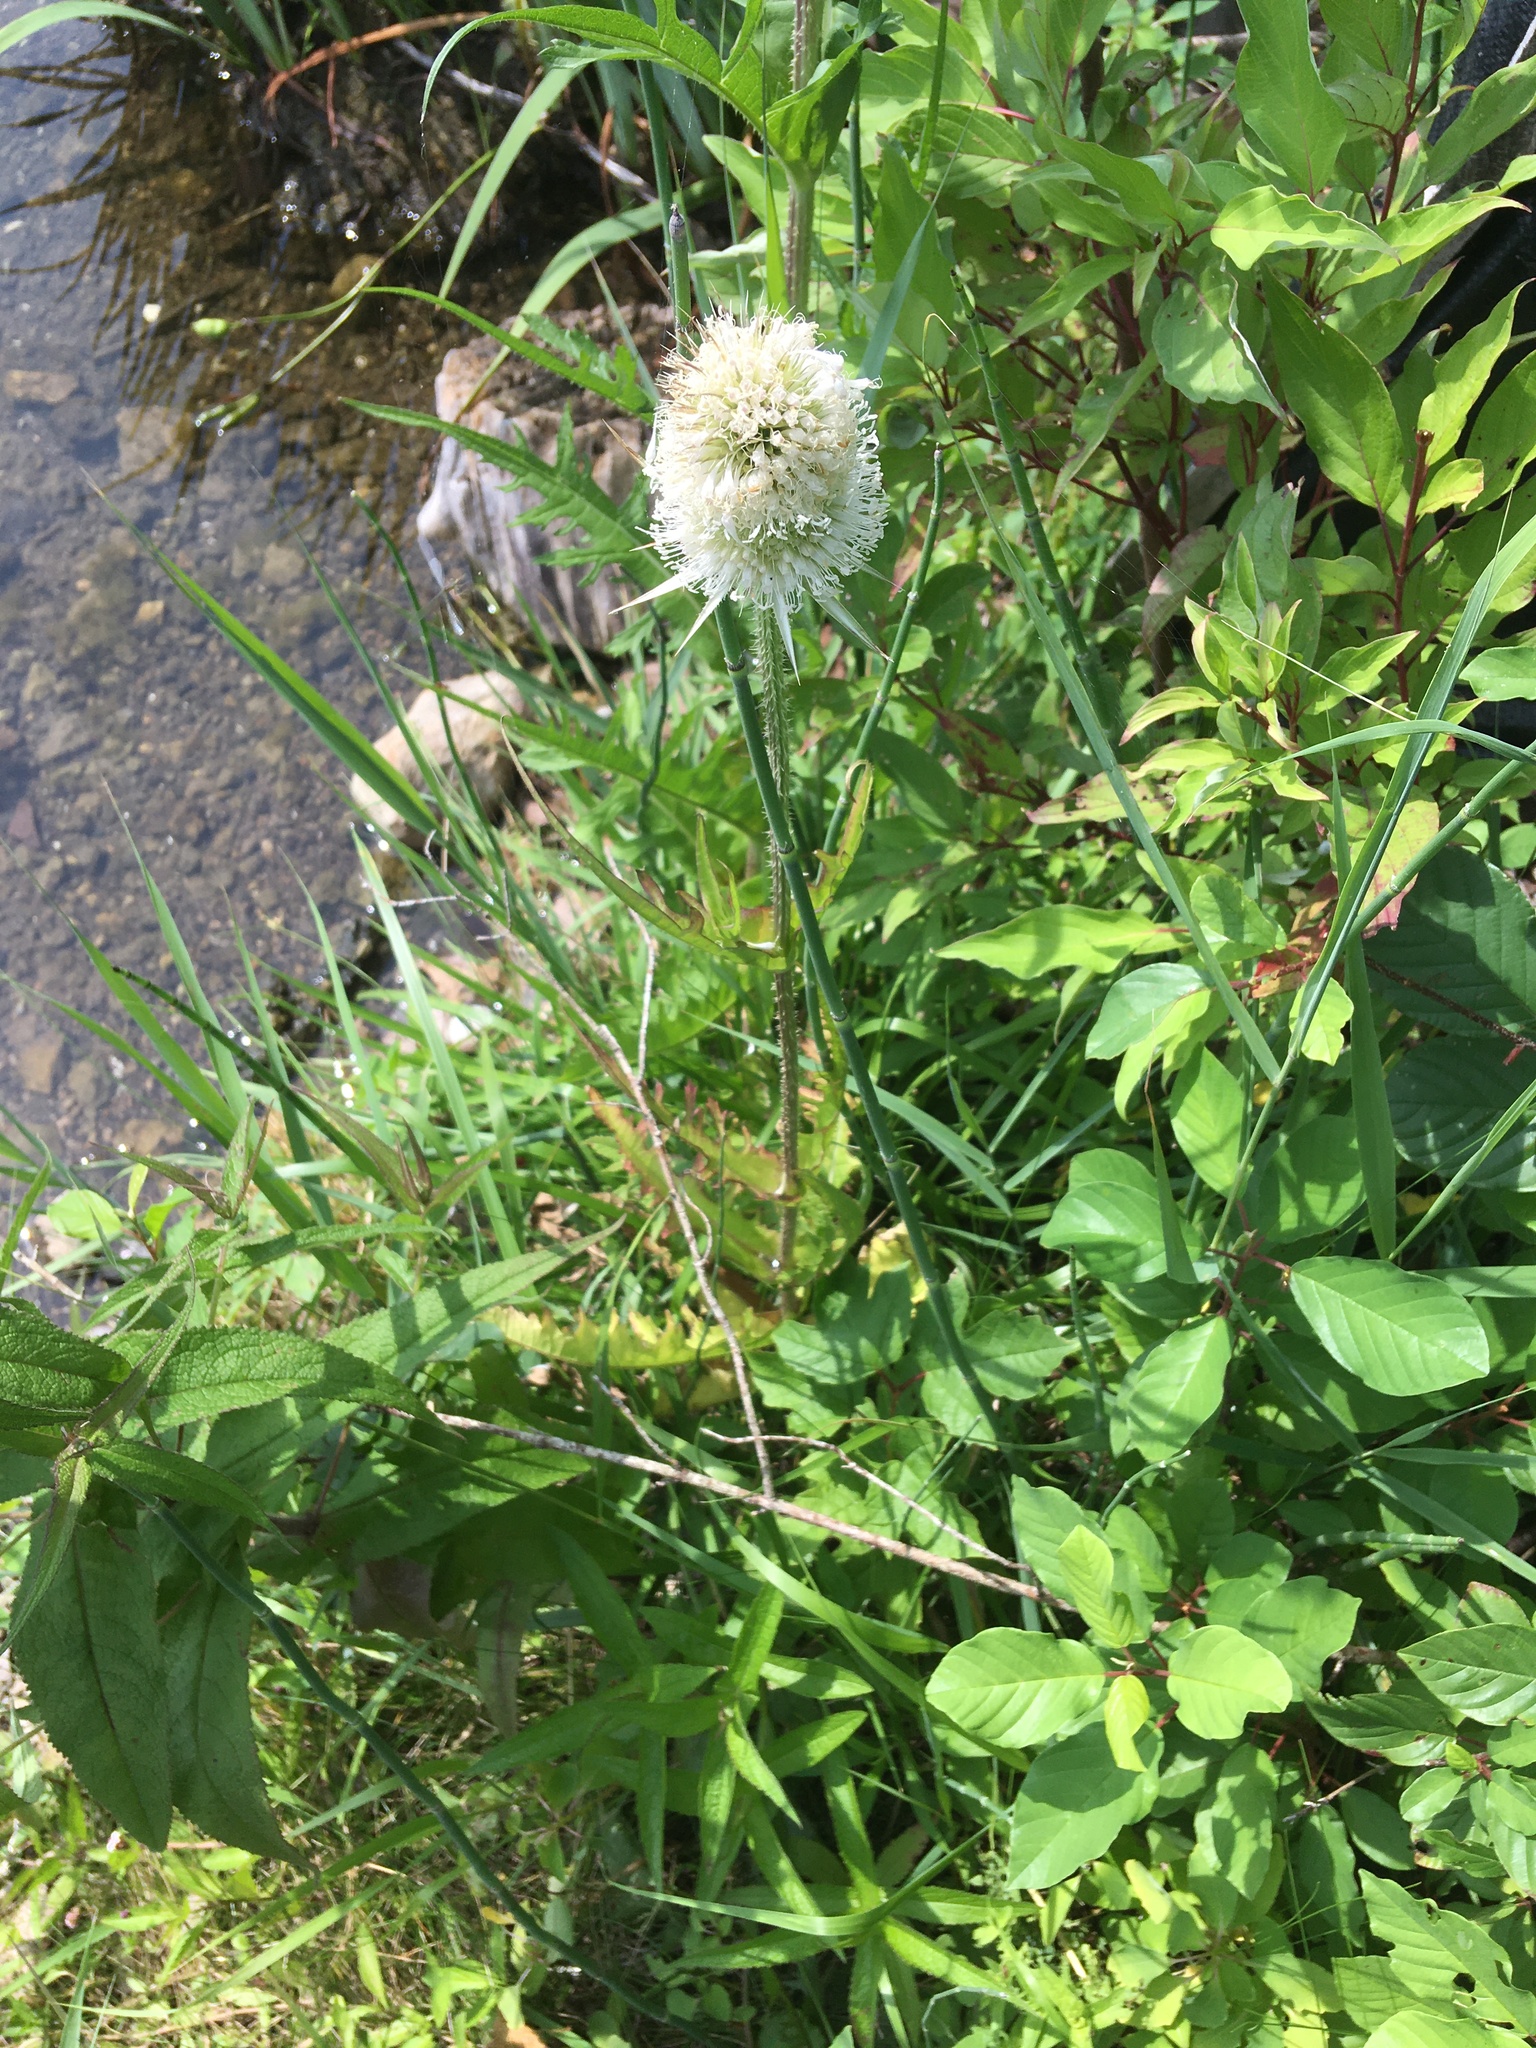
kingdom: Plantae
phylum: Tracheophyta
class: Magnoliopsida
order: Dipsacales
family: Caprifoliaceae
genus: Dipsacus
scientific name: Dipsacus laciniatus
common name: Cut-leaved teasel
